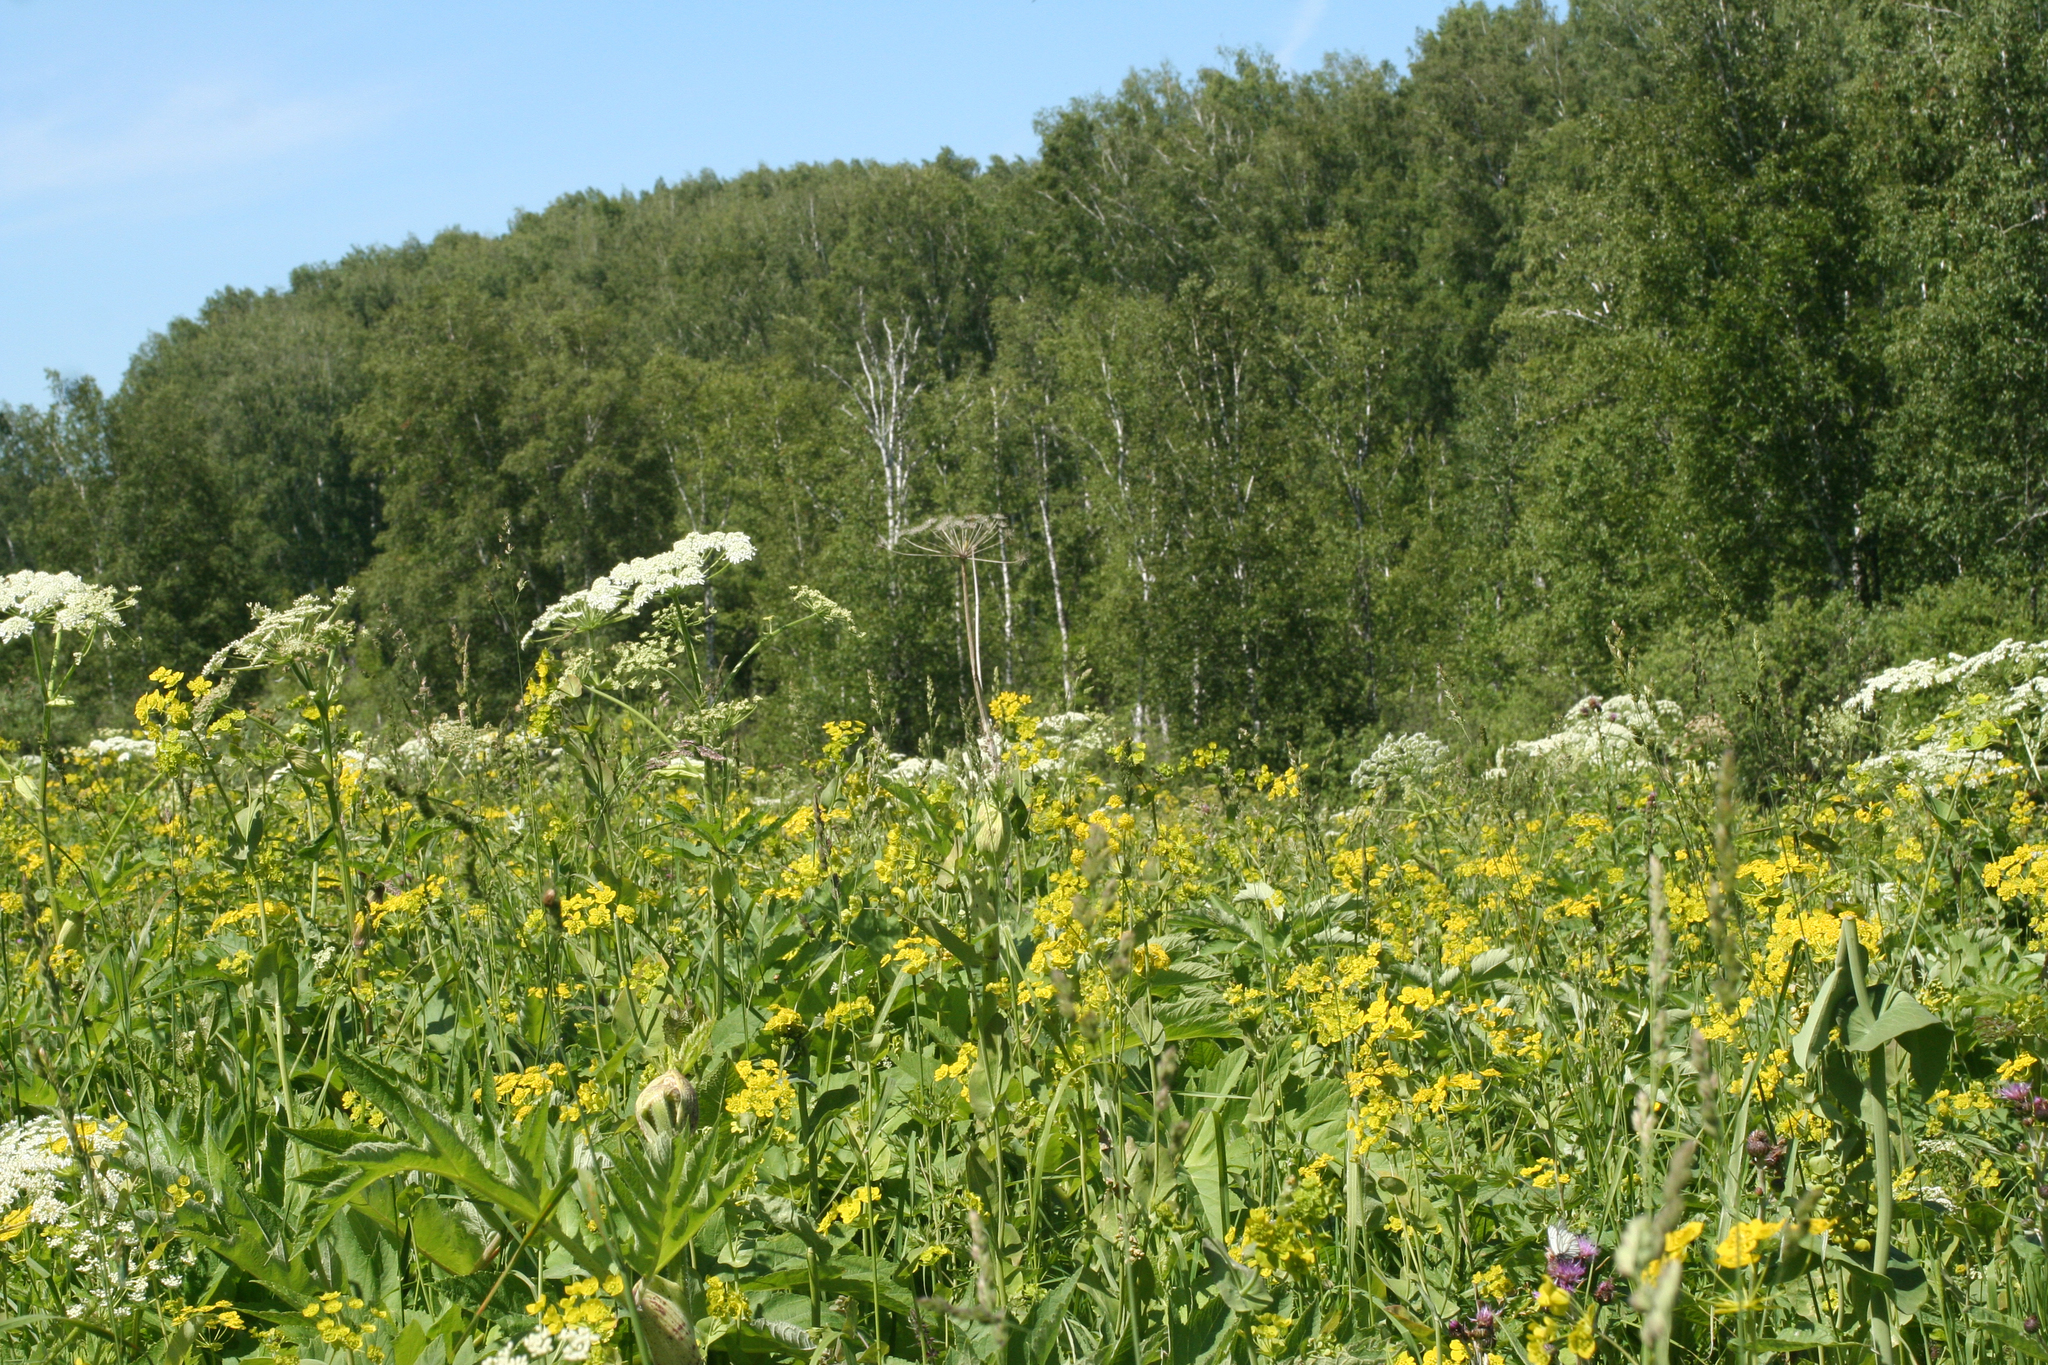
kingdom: Plantae
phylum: Tracheophyta
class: Magnoliopsida
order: Apiales
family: Apiaceae
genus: Bupleurum
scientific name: Bupleurum aureum
